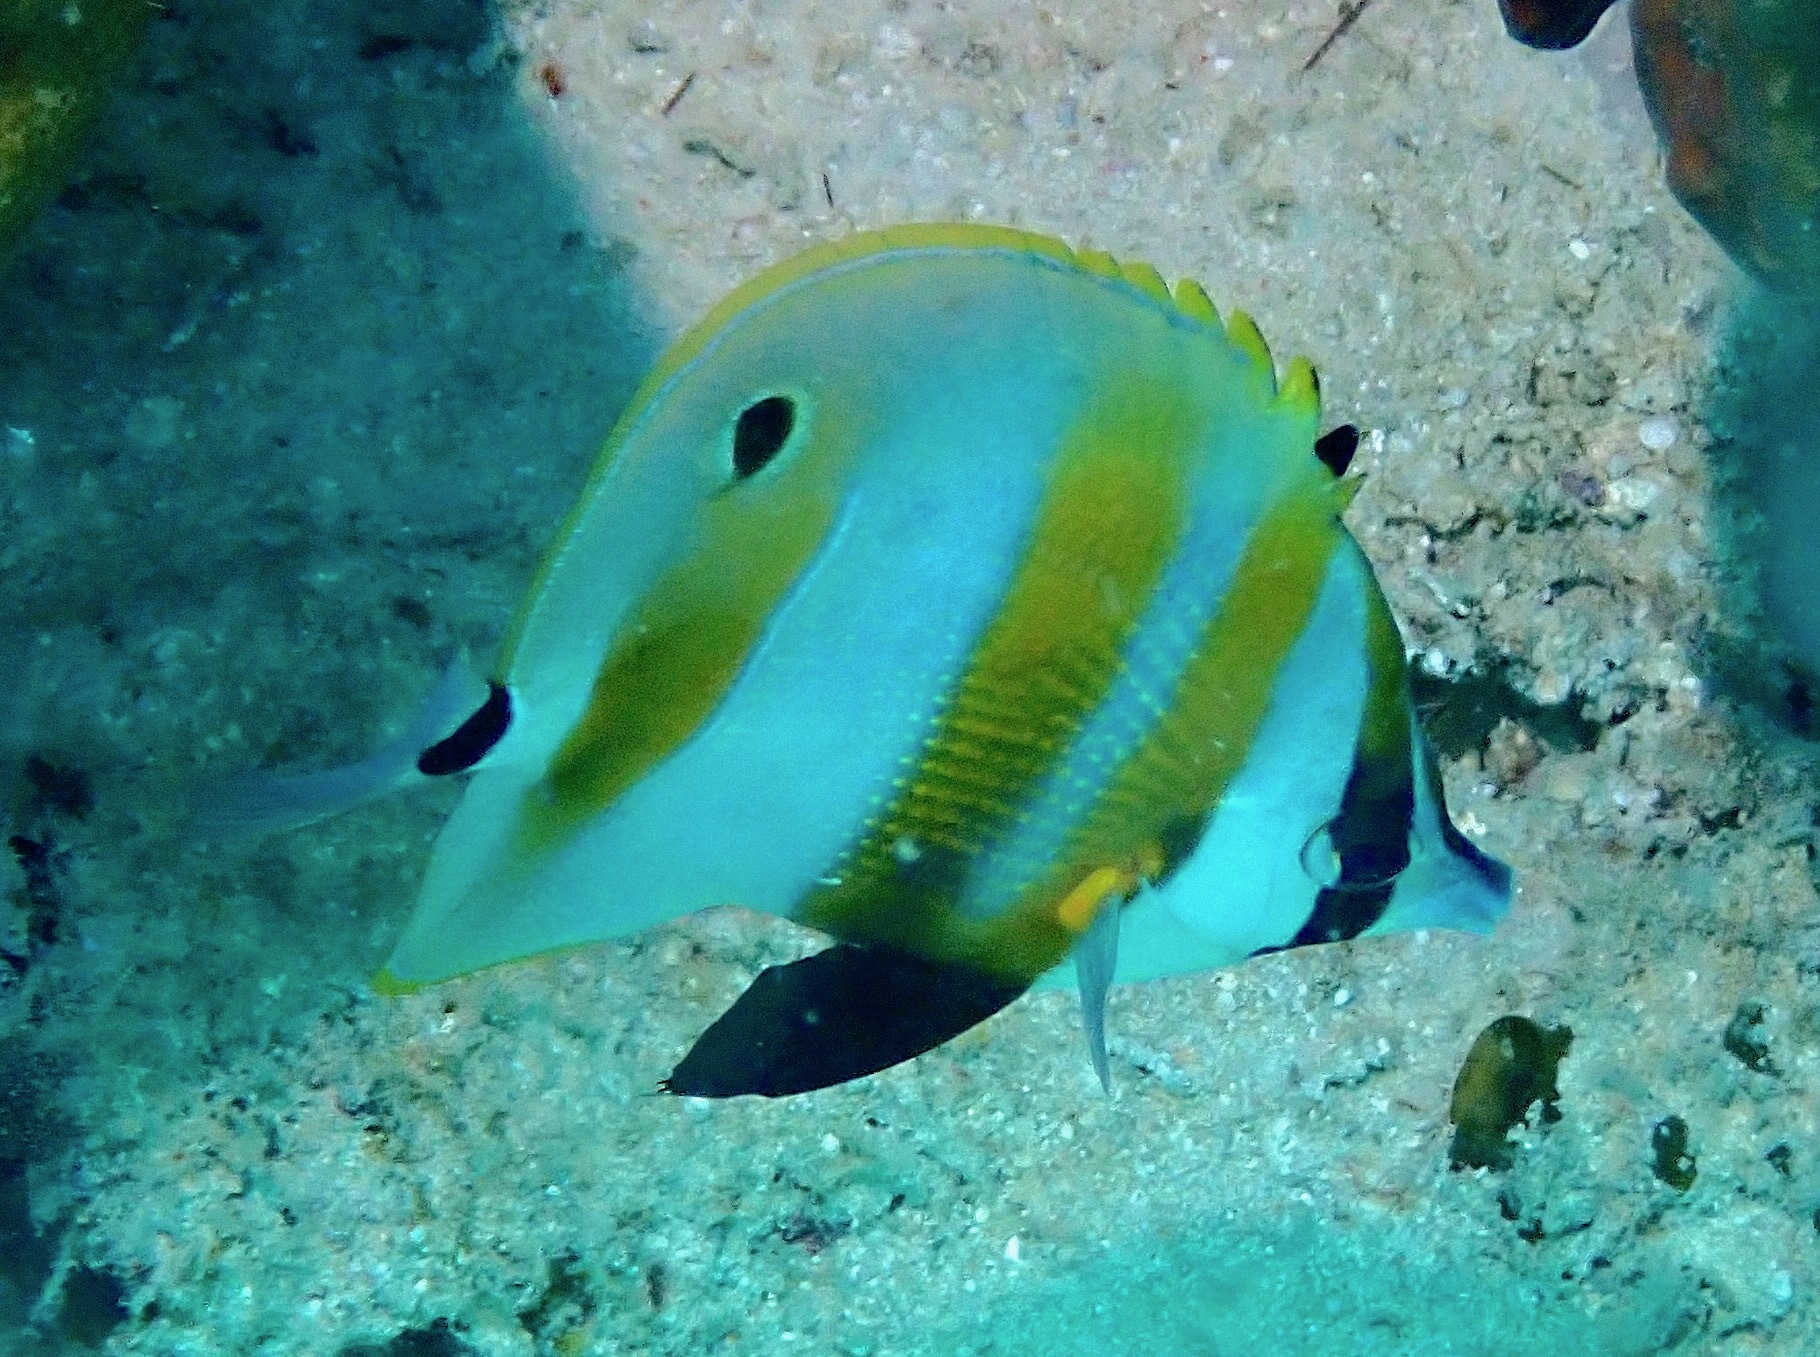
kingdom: Animalia
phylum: Chordata
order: Perciformes
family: Chaetodontidae
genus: Coradion
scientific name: Coradion chrysozonus
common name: Orange-banded coralfish
